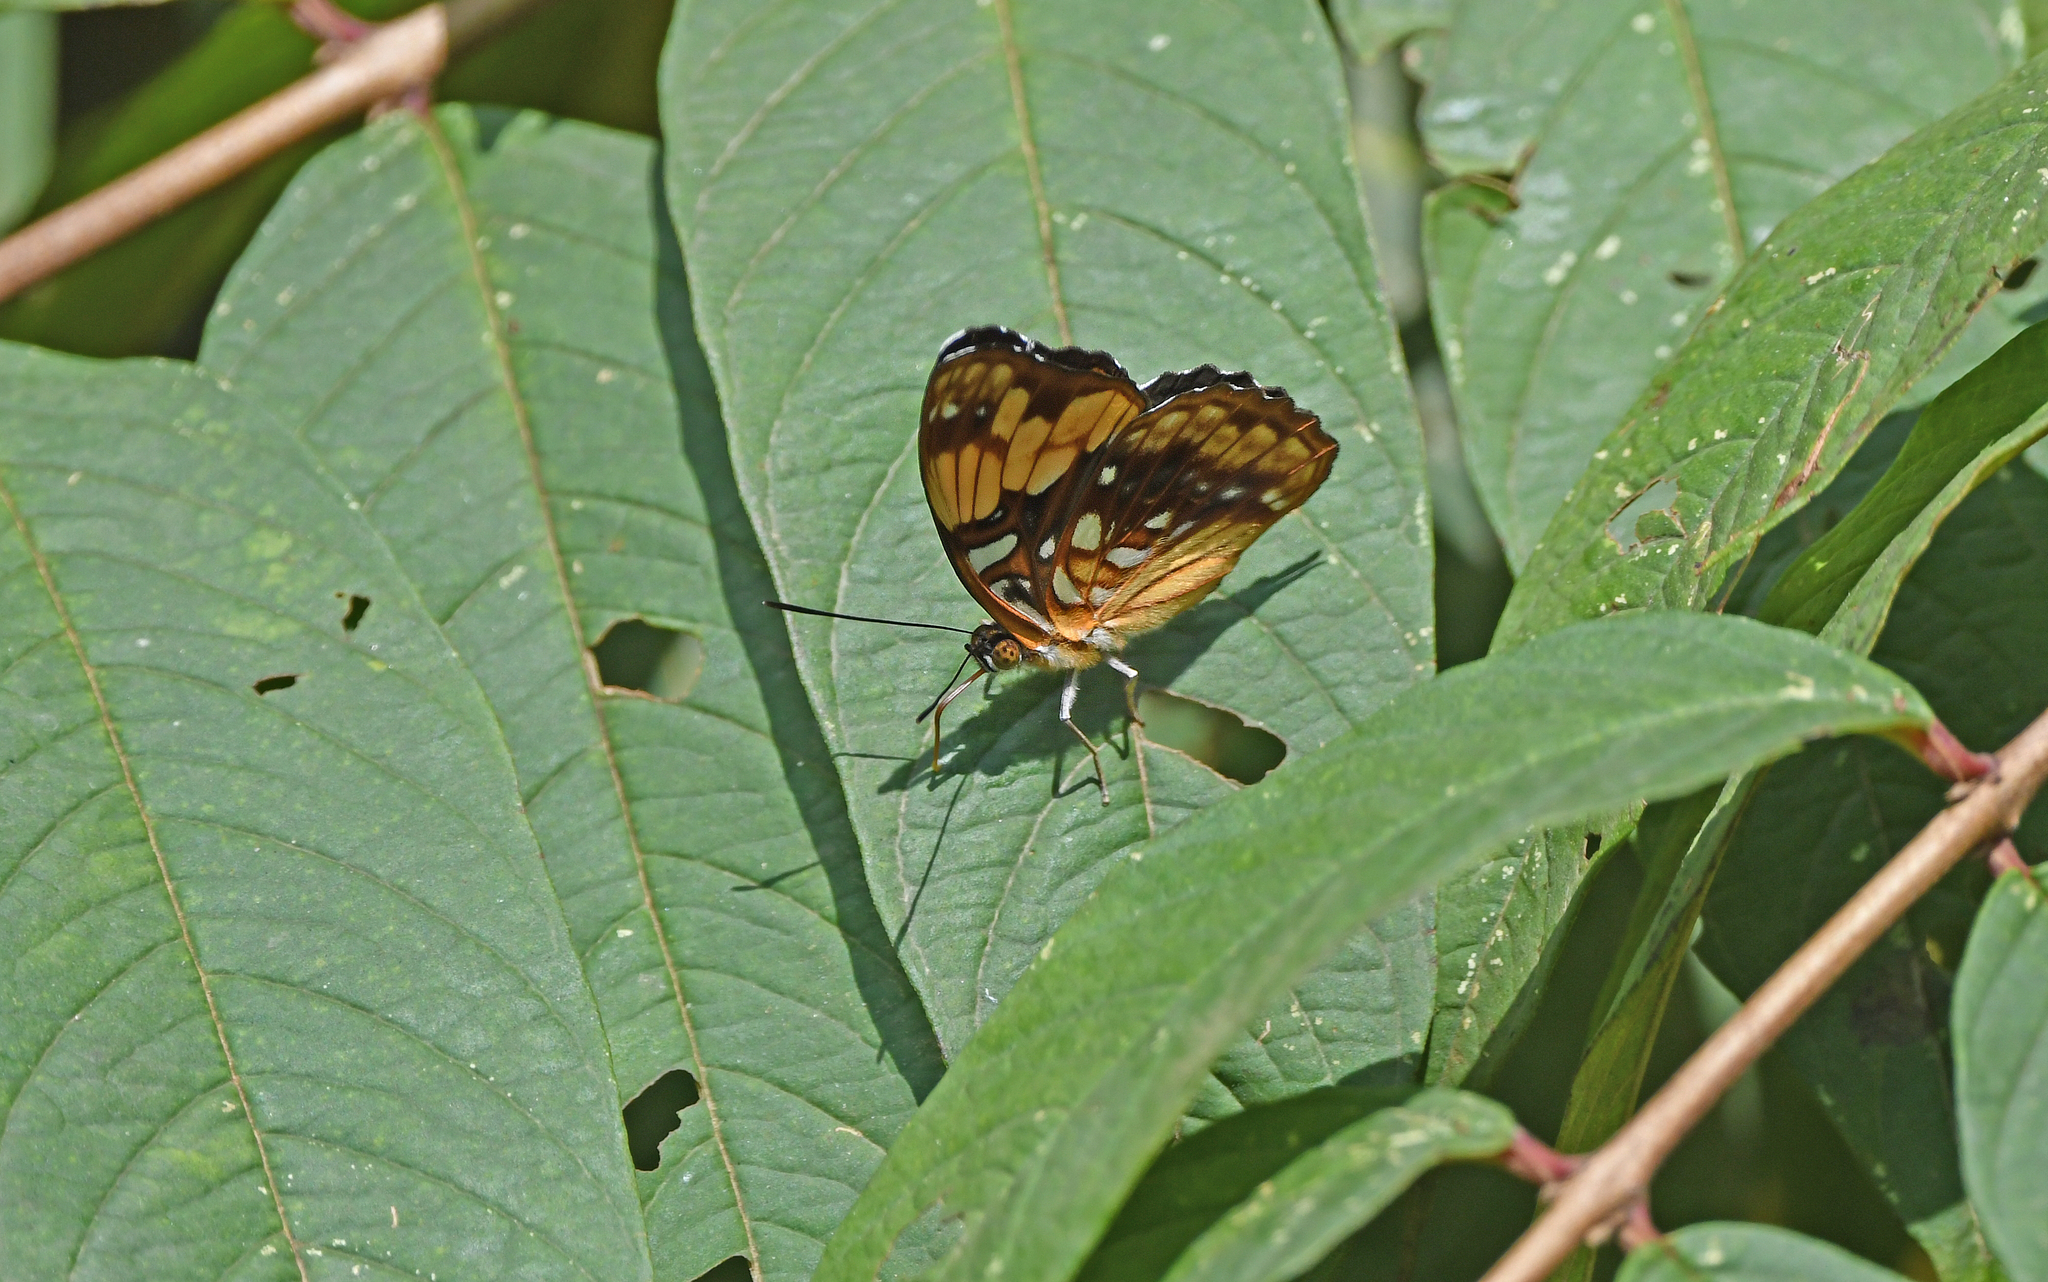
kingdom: Animalia
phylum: Arthropoda
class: Insecta
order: Lepidoptera
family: Nymphalidae
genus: Limenitis
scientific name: Limenitis saundersii
